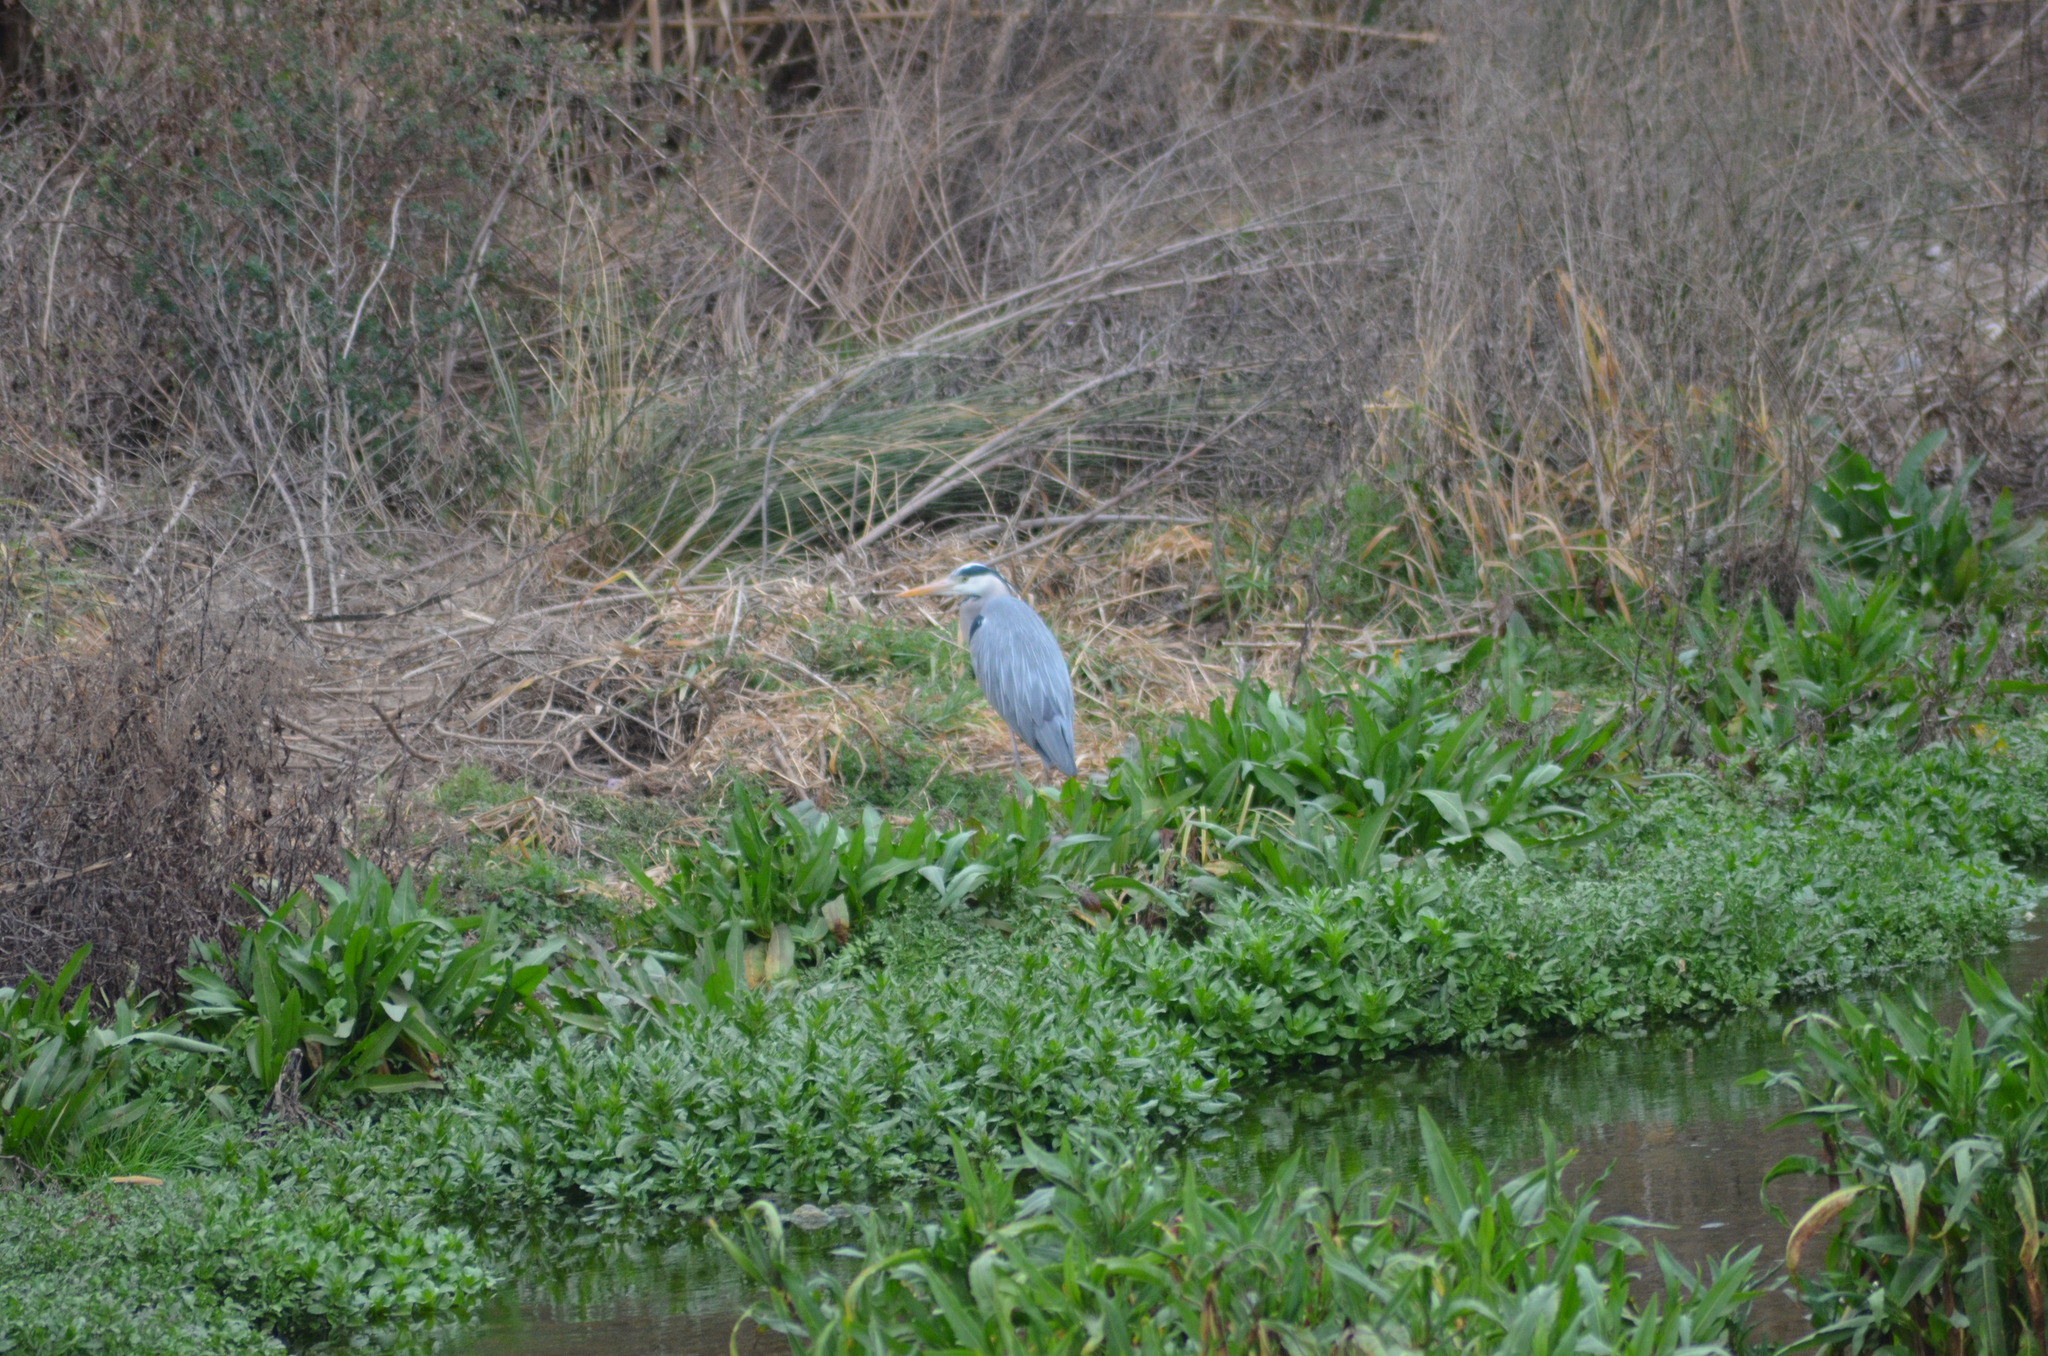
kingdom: Animalia
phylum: Chordata
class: Aves
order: Pelecaniformes
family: Ardeidae
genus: Ardea
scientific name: Ardea cinerea
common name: Grey heron
